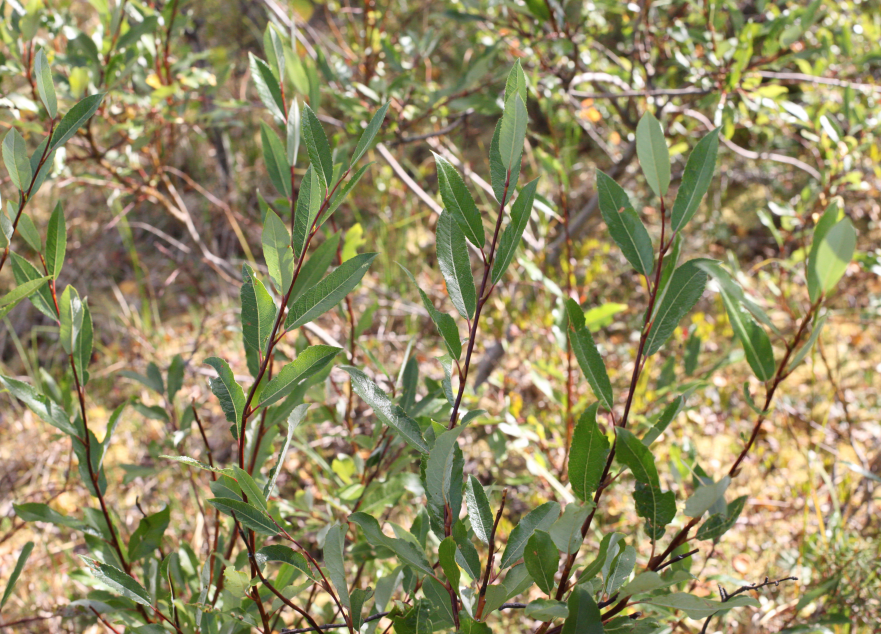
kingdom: Plantae
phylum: Tracheophyta
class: Magnoliopsida
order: Malpighiales
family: Salicaceae
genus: Salix
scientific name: Salix phylicifolia
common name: Tea-leaved willow
